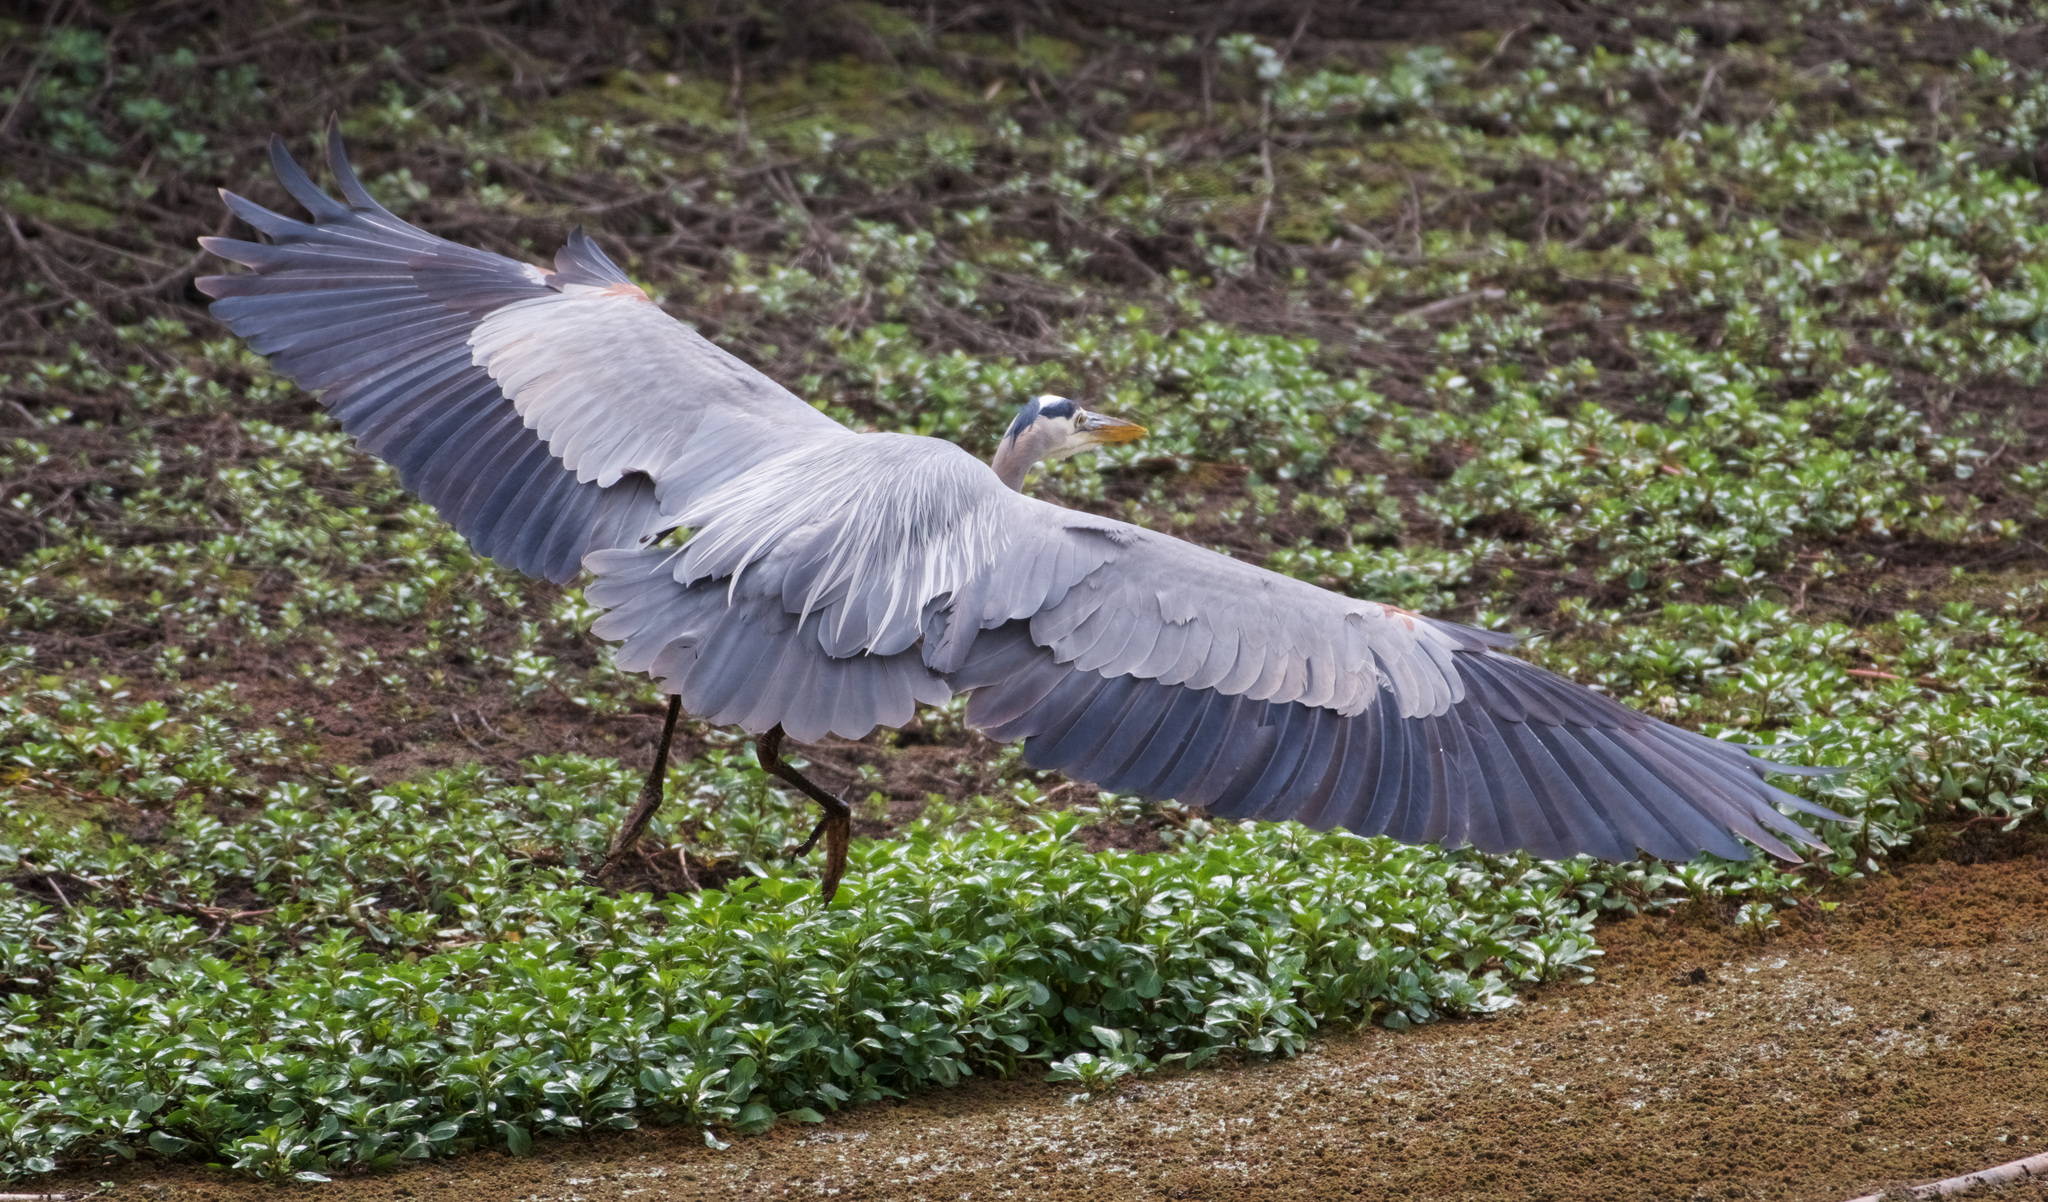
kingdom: Animalia
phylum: Chordata
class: Aves
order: Pelecaniformes
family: Ardeidae
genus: Ardea
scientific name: Ardea herodias
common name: Great blue heron
